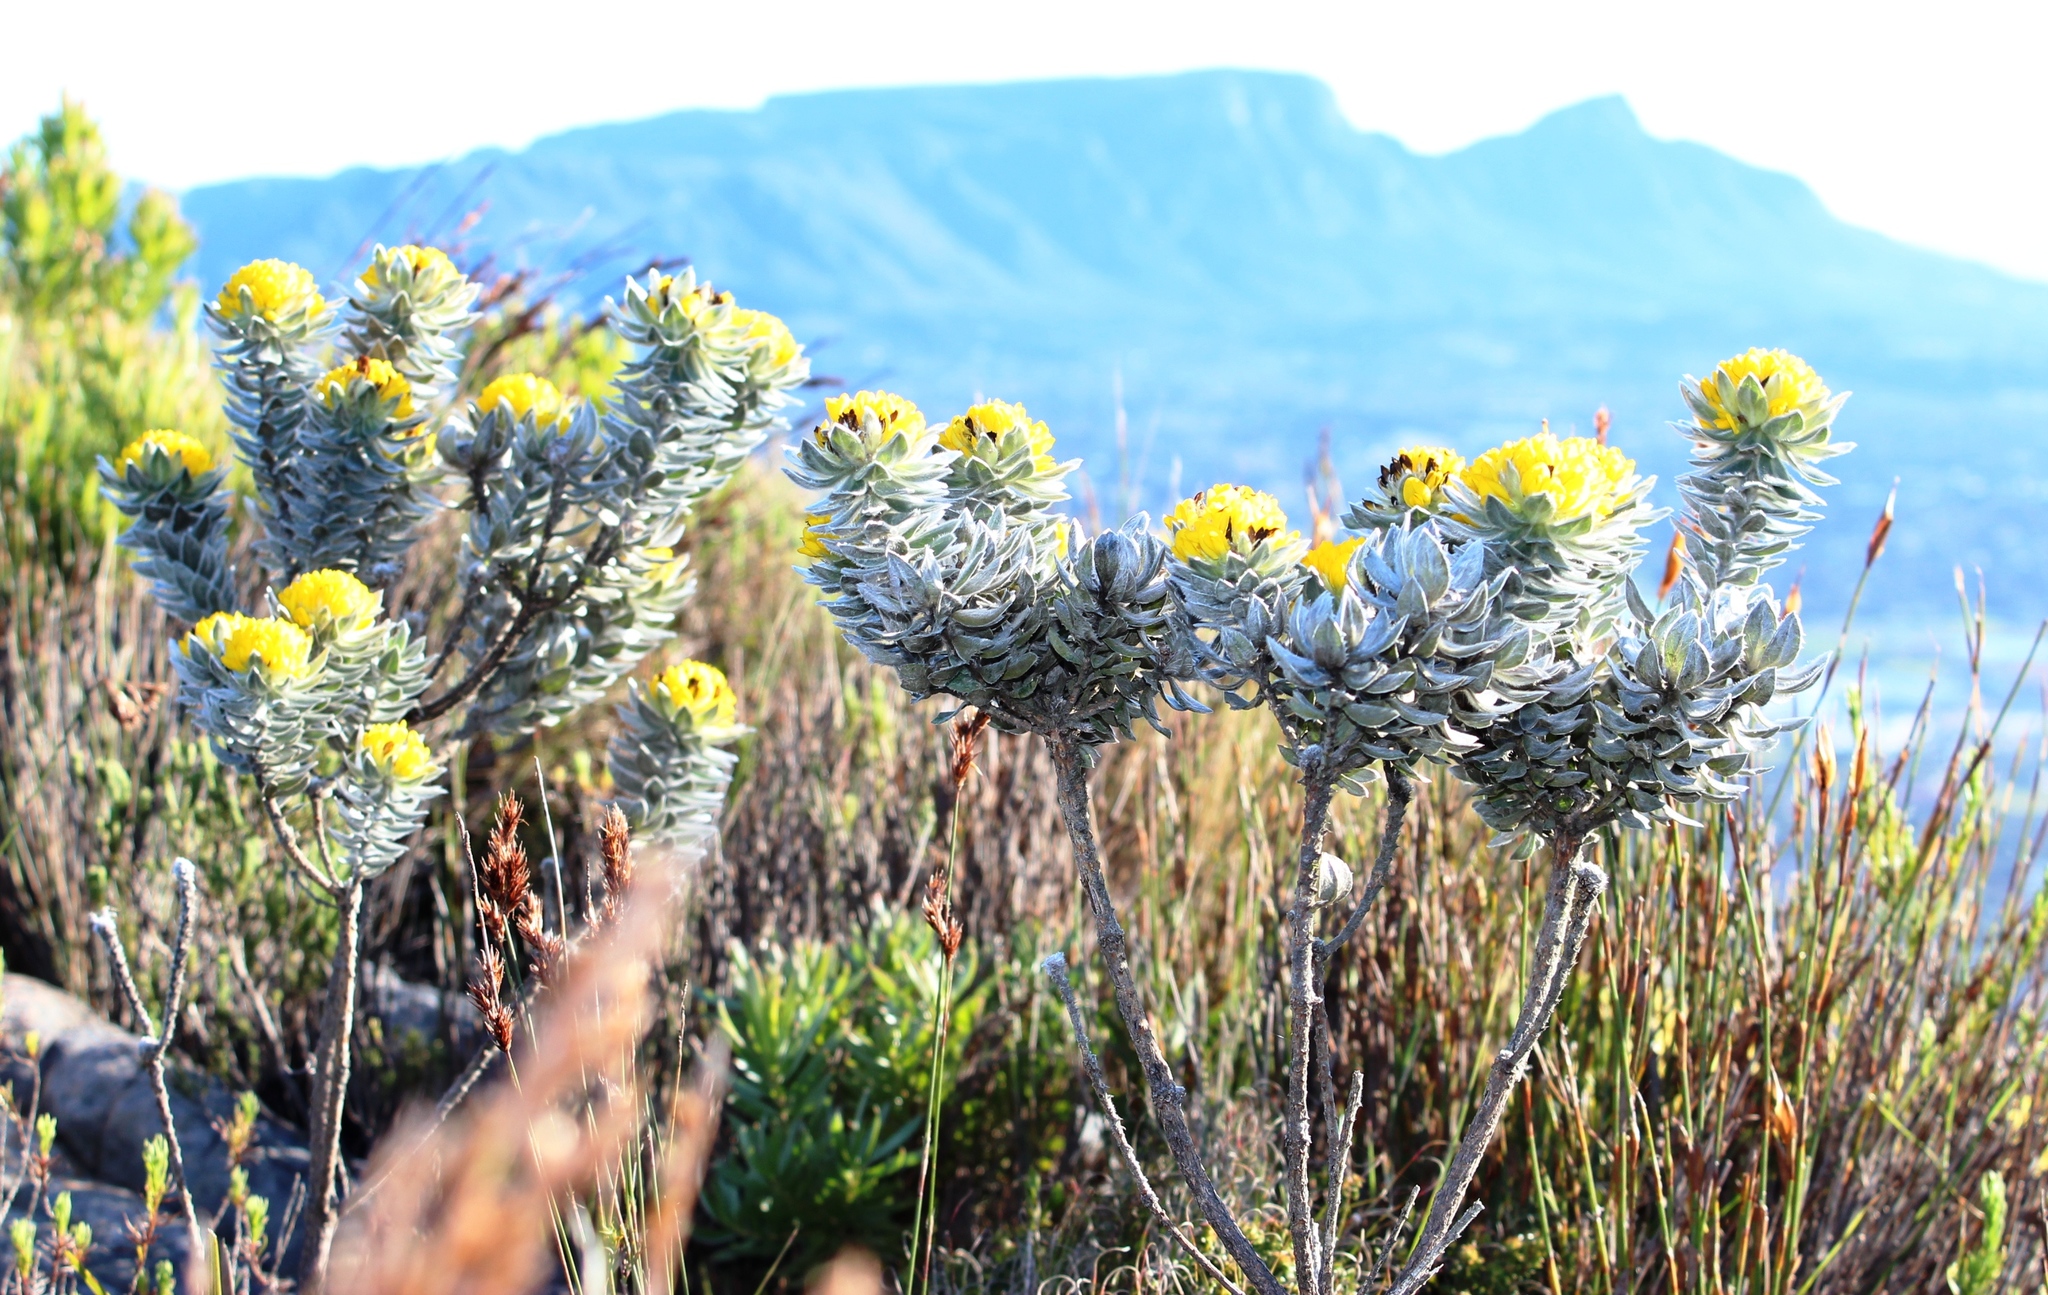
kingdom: Plantae
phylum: Tracheophyta
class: Magnoliopsida
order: Fabales
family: Fabaceae
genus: Xiphotheca
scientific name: Xiphotheca fruticosa
